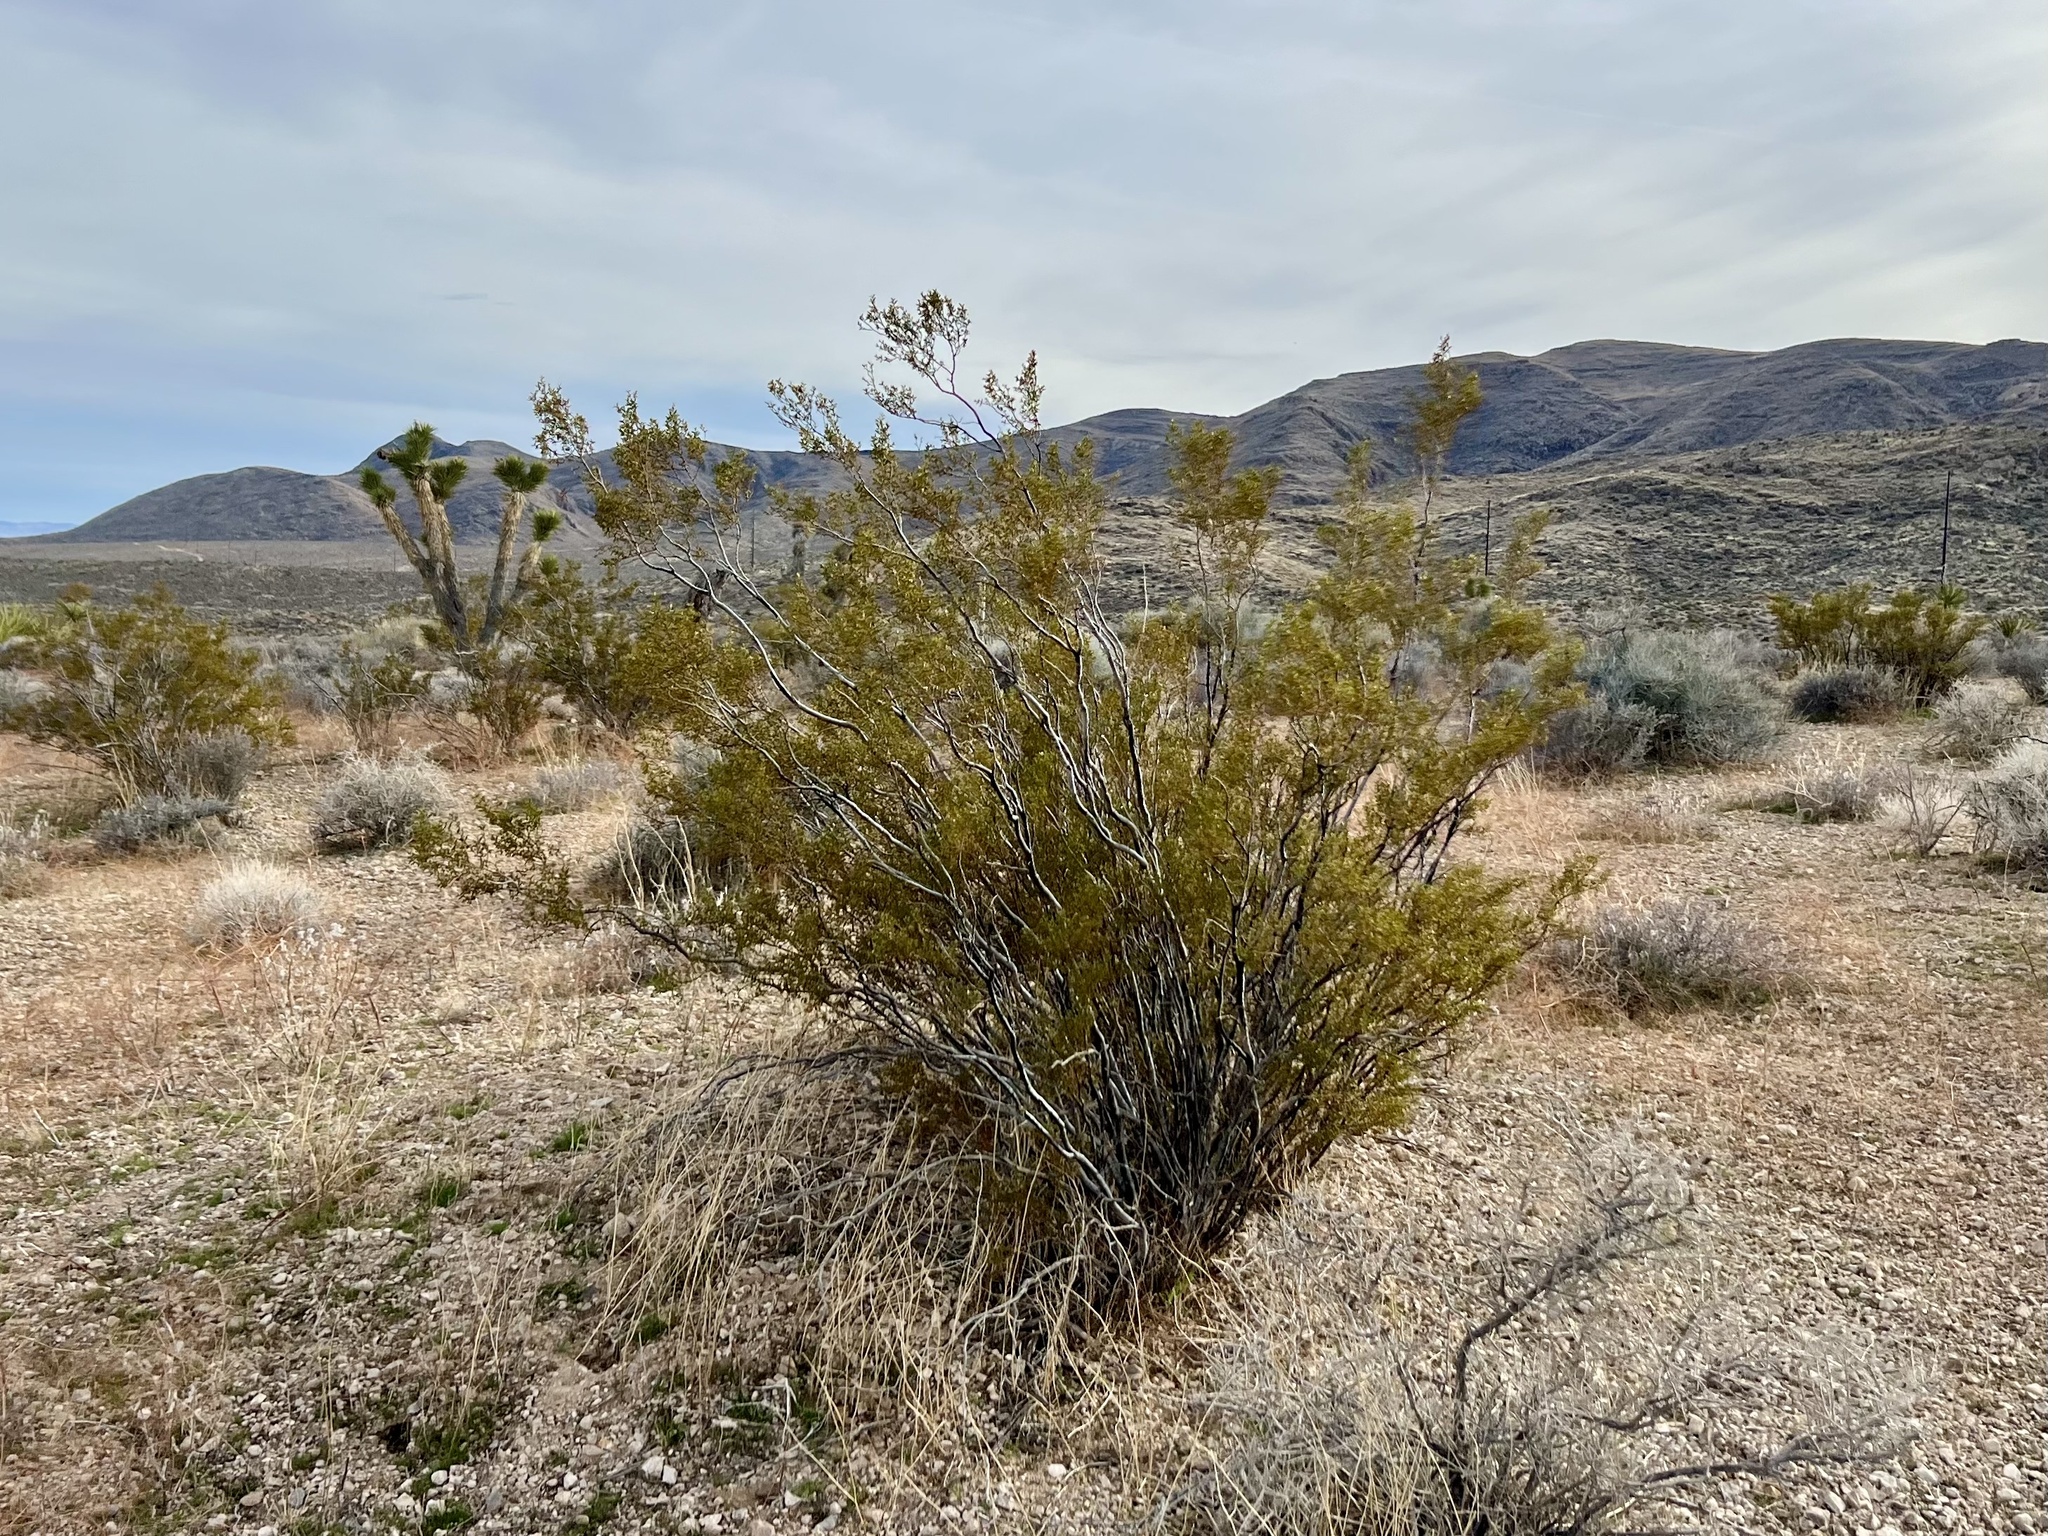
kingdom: Plantae
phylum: Tracheophyta
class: Magnoliopsida
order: Zygophyllales
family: Zygophyllaceae
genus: Larrea
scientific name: Larrea tridentata
